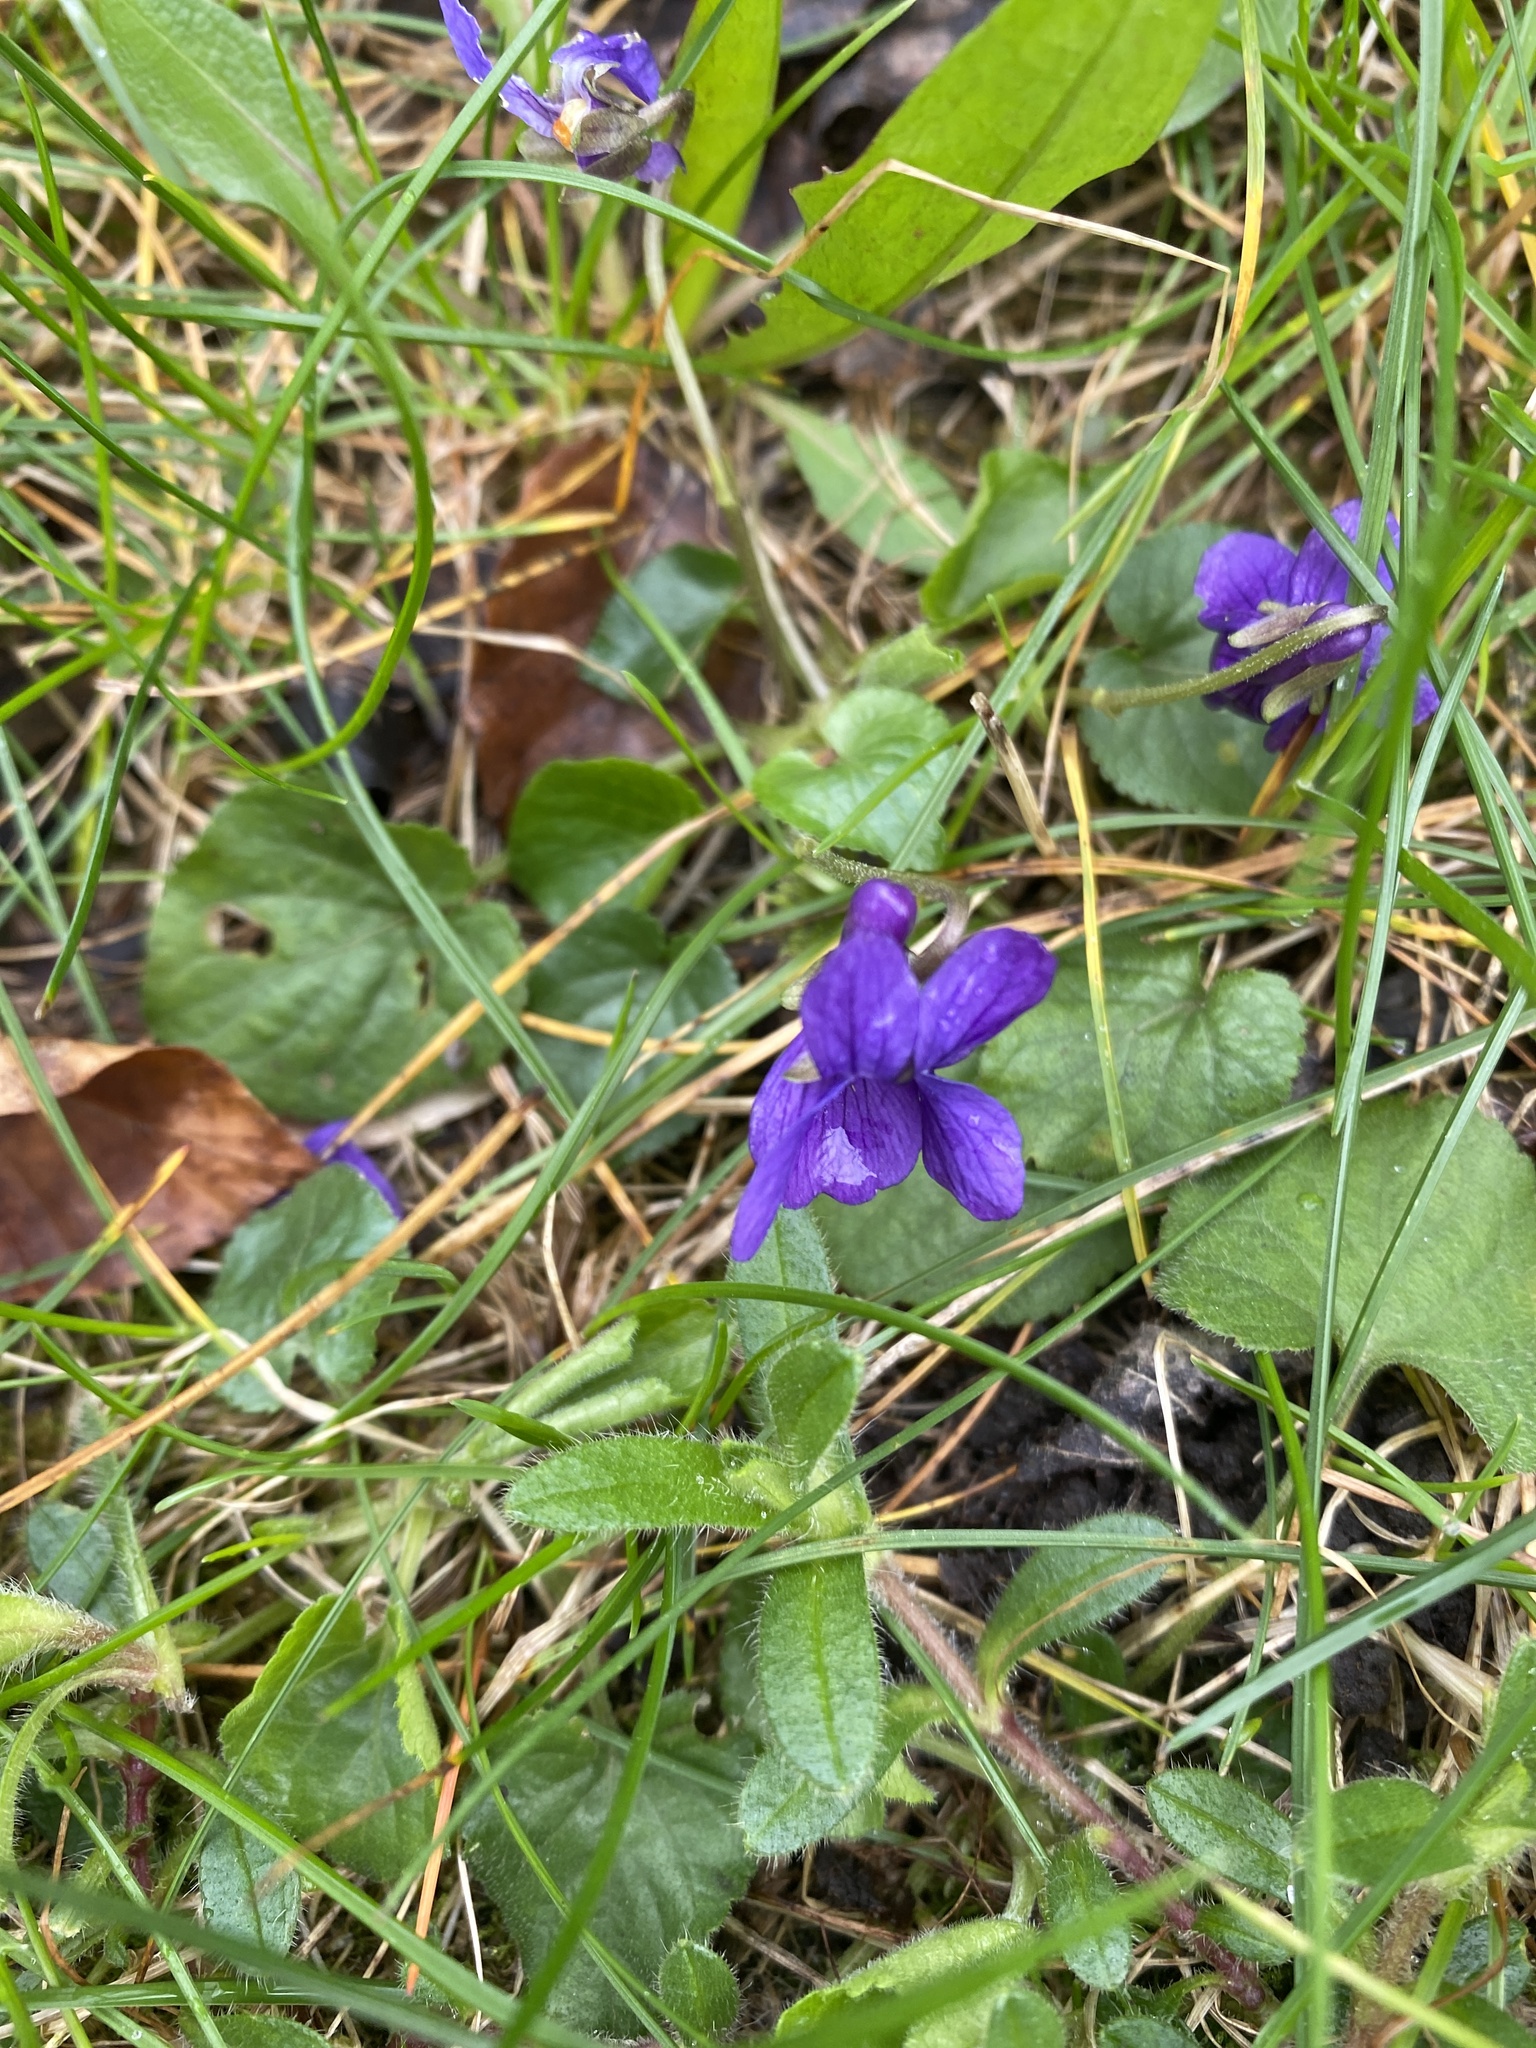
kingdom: Plantae
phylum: Tracheophyta
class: Magnoliopsida
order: Malpighiales
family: Violaceae
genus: Viola
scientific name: Viola odorata
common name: Sweet violet
